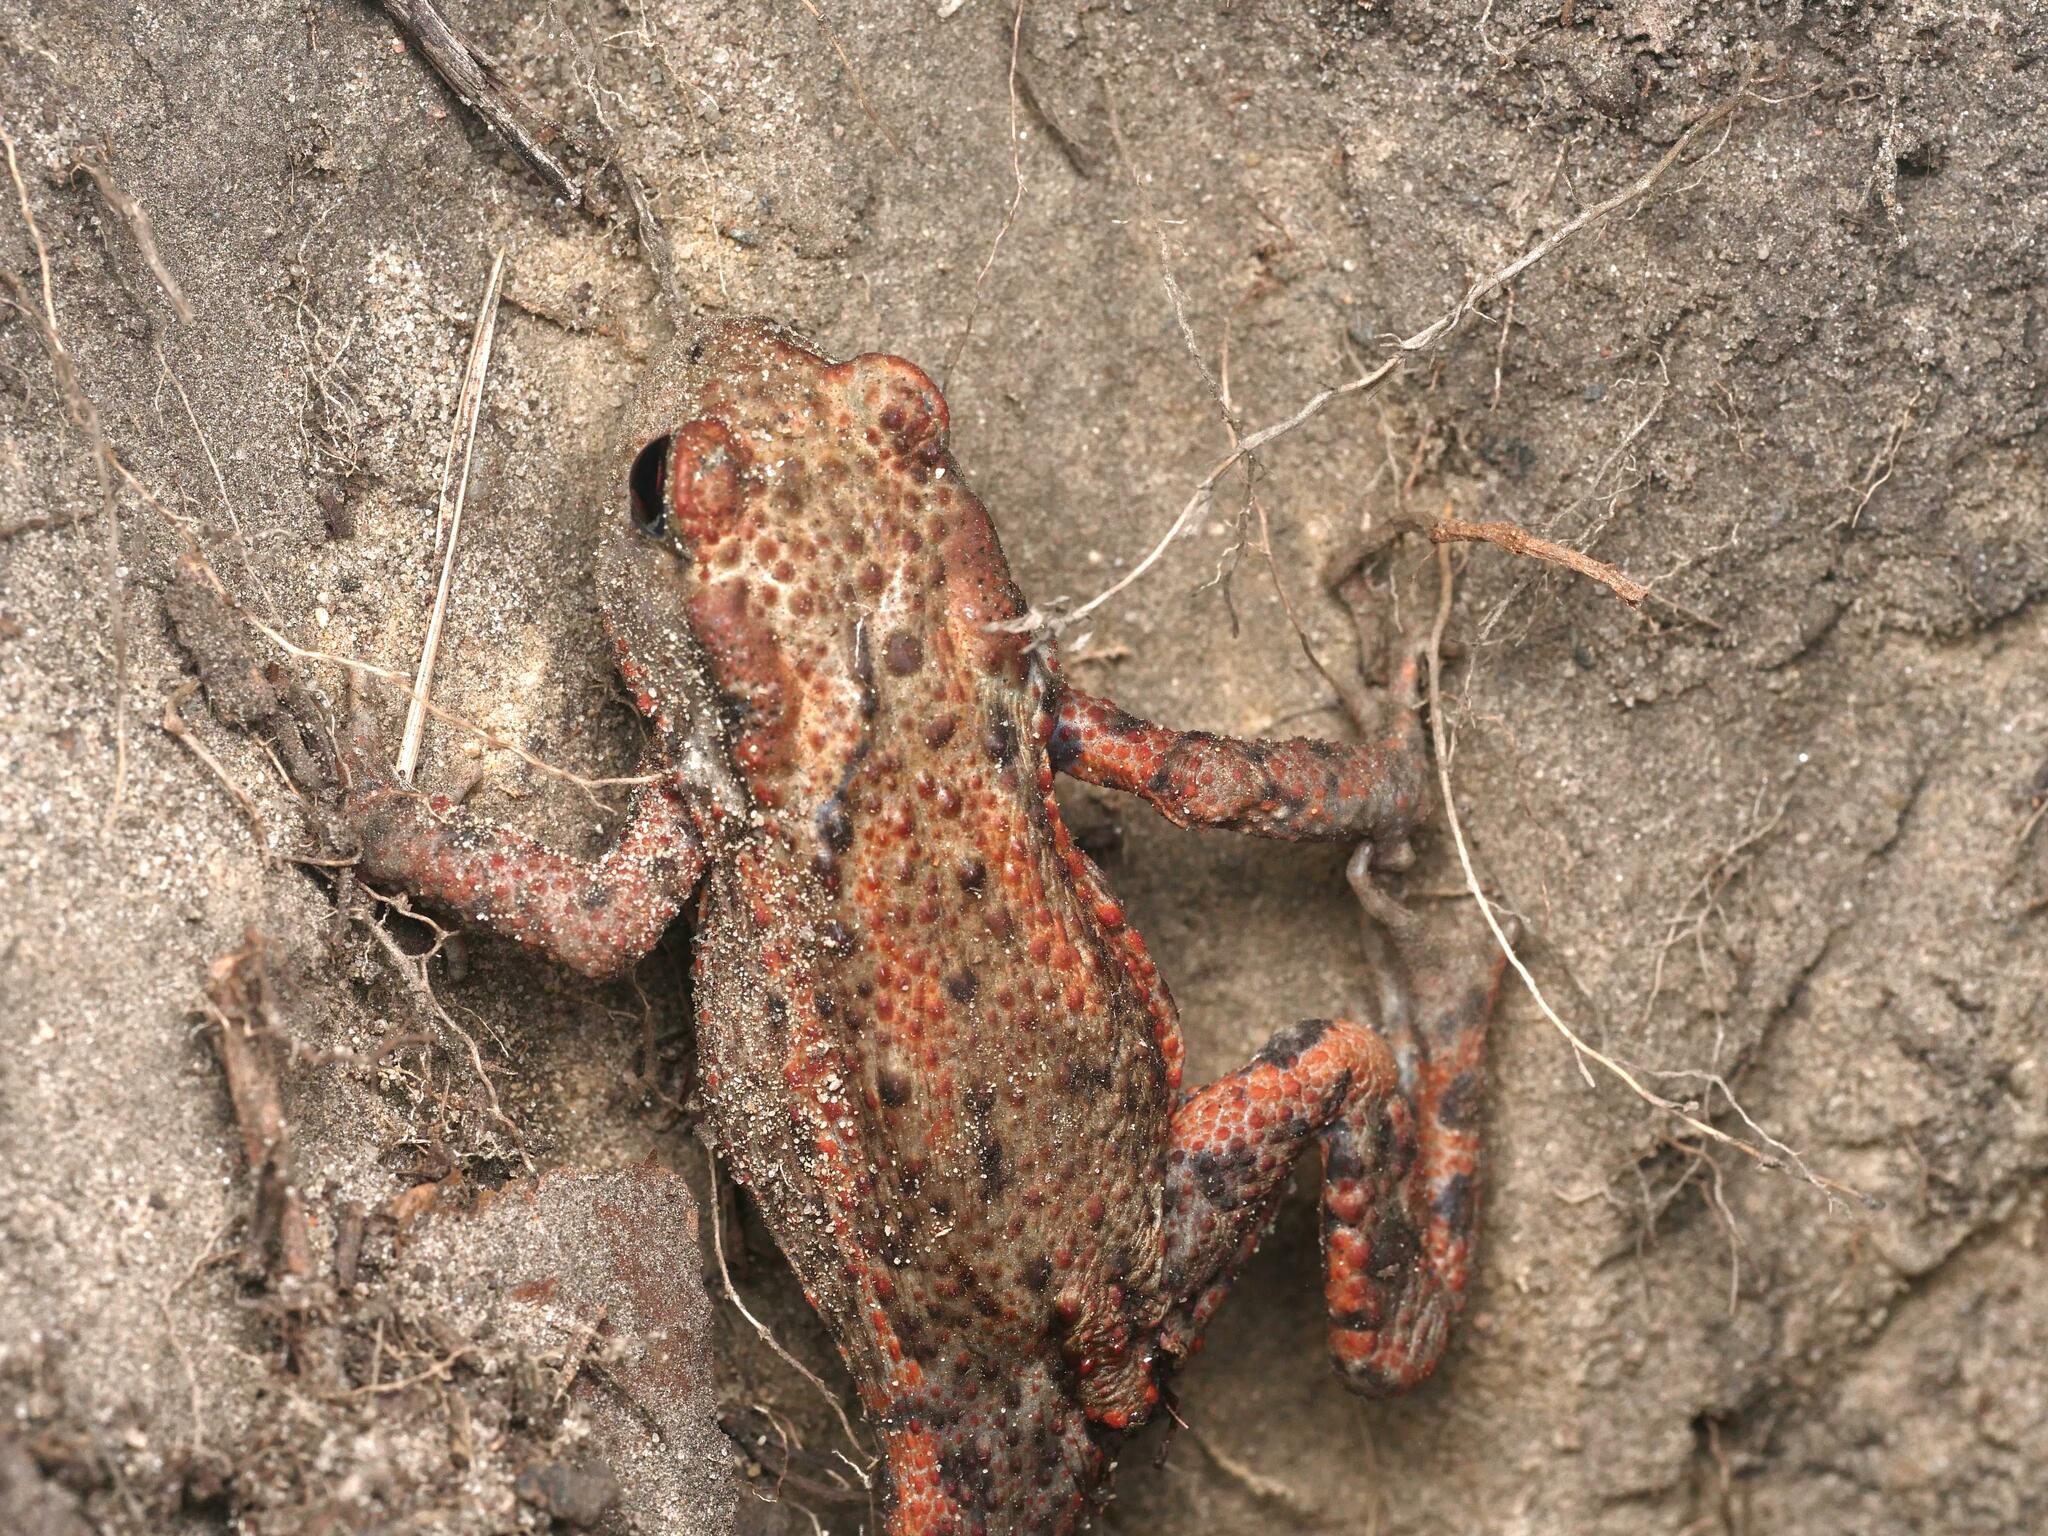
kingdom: Animalia
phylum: Chordata
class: Amphibia
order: Anura
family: Bufonidae
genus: Bufo
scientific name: Bufo bufo
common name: Common toad
